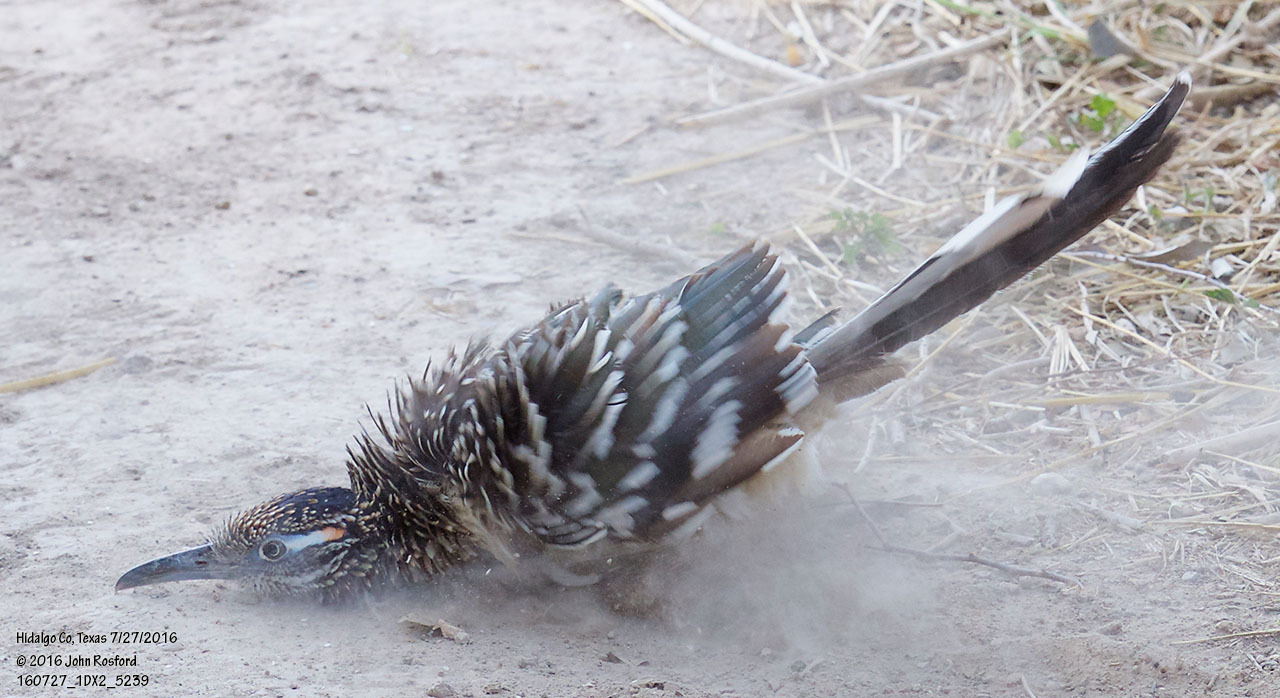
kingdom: Animalia
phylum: Chordata
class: Aves
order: Cuculiformes
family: Cuculidae
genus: Geococcyx
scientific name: Geococcyx californianus
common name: Greater roadrunner
